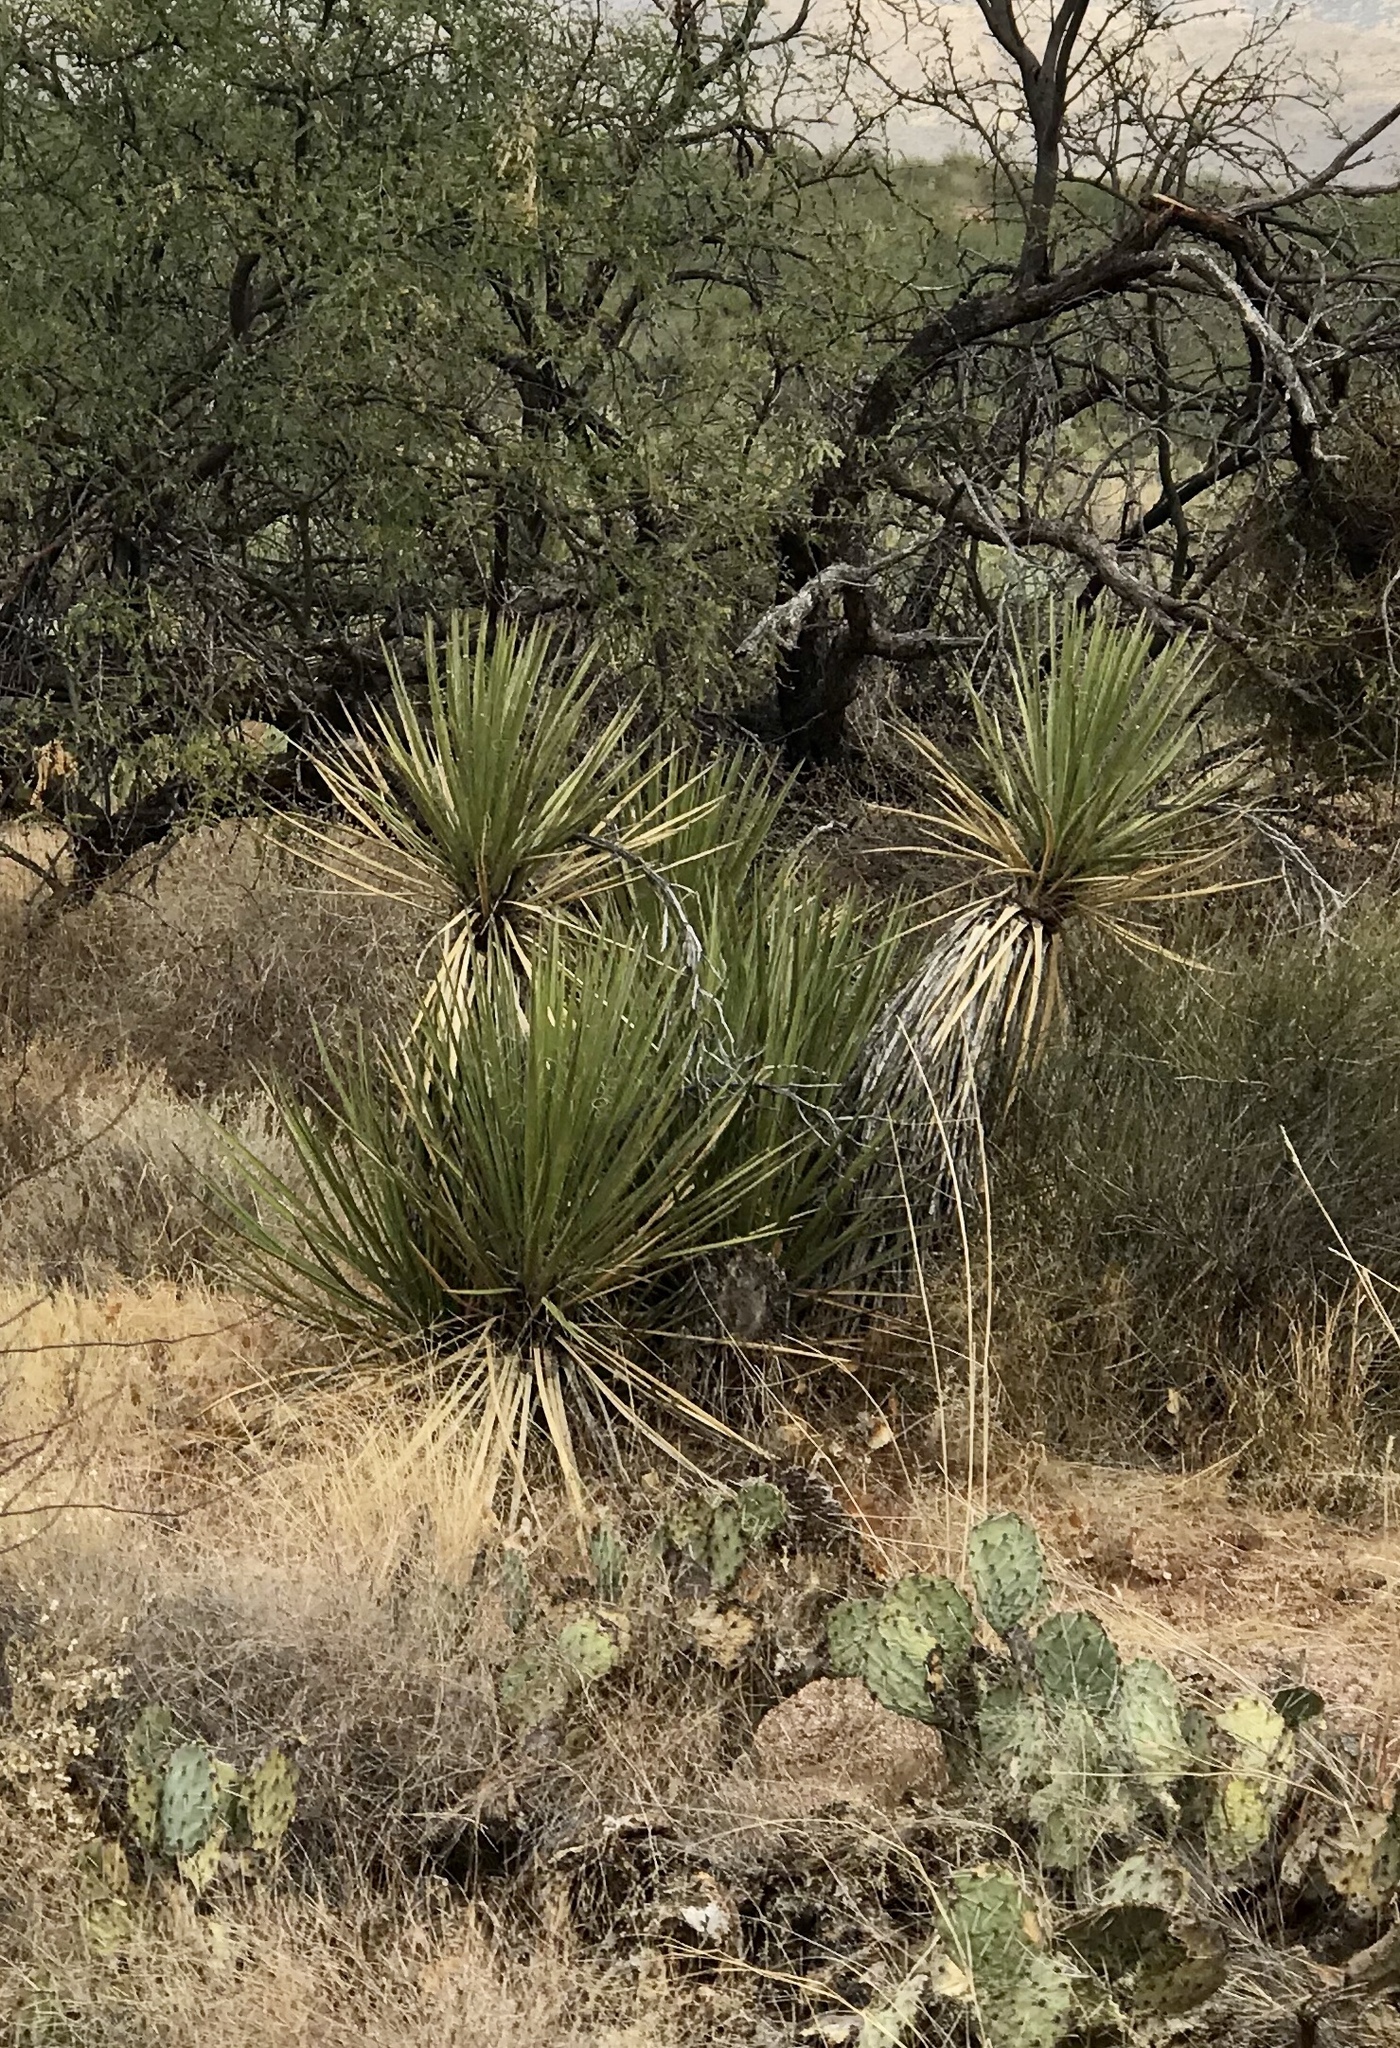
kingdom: Plantae
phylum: Tracheophyta
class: Liliopsida
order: Asparagales
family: Asparagaceae
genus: Yucca
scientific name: Yucca baccata
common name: Banana yucca
